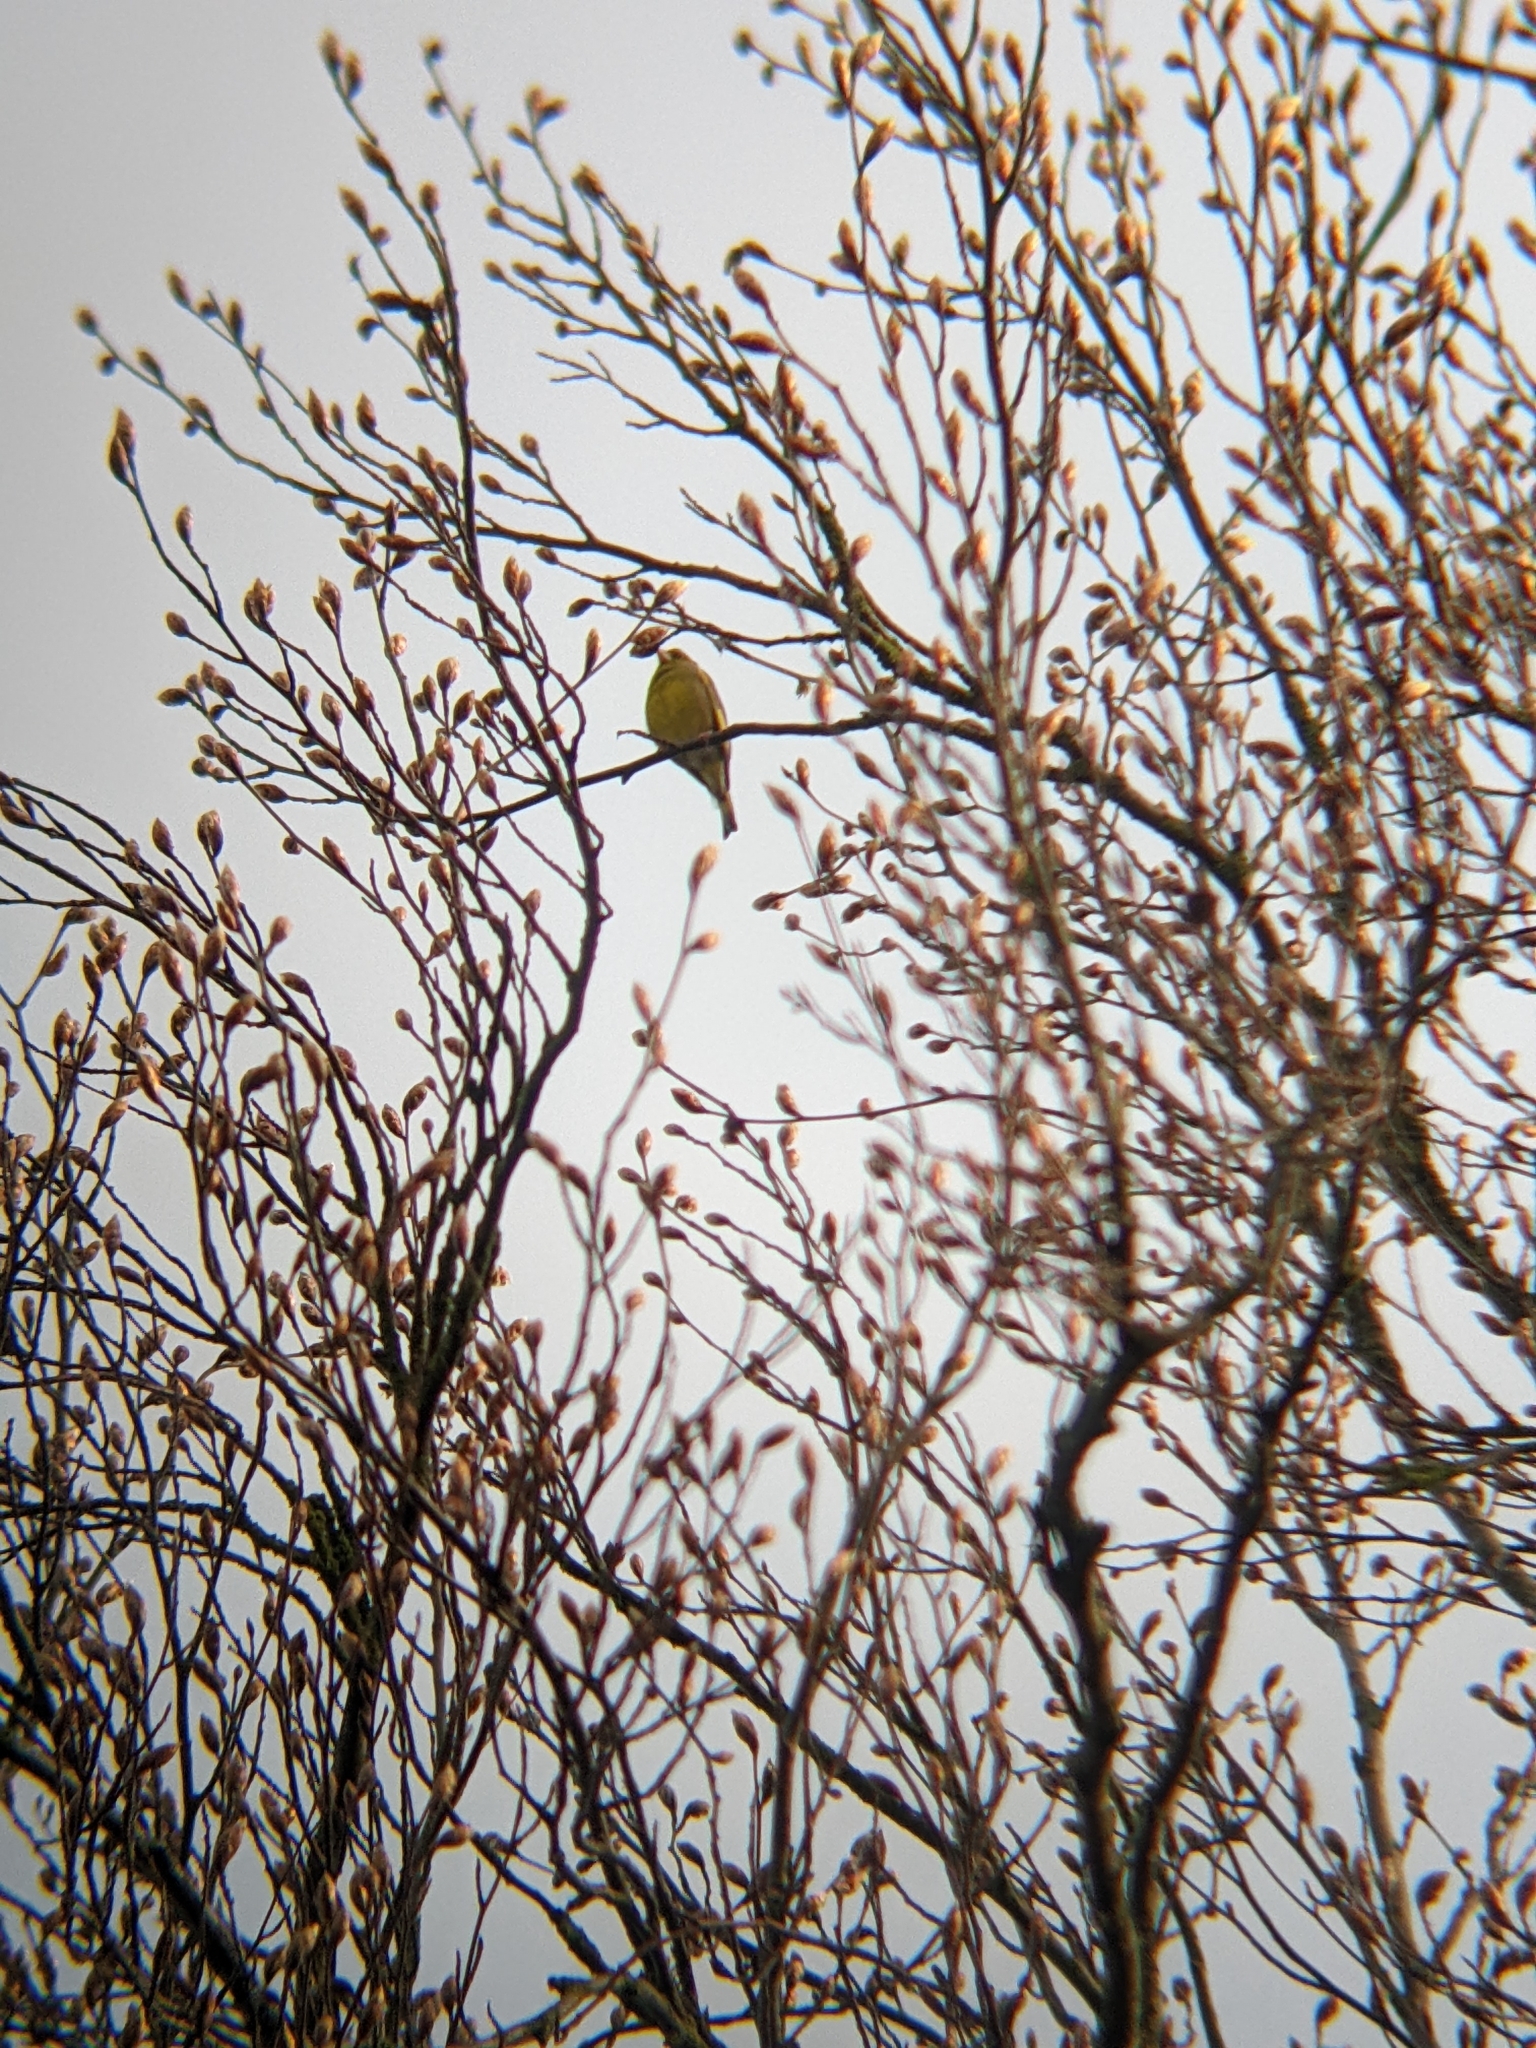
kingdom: Plantae
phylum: Tracheophyta
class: Liliopsida
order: Poales
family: Poaceae
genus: Chloris
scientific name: Chloris chloris
